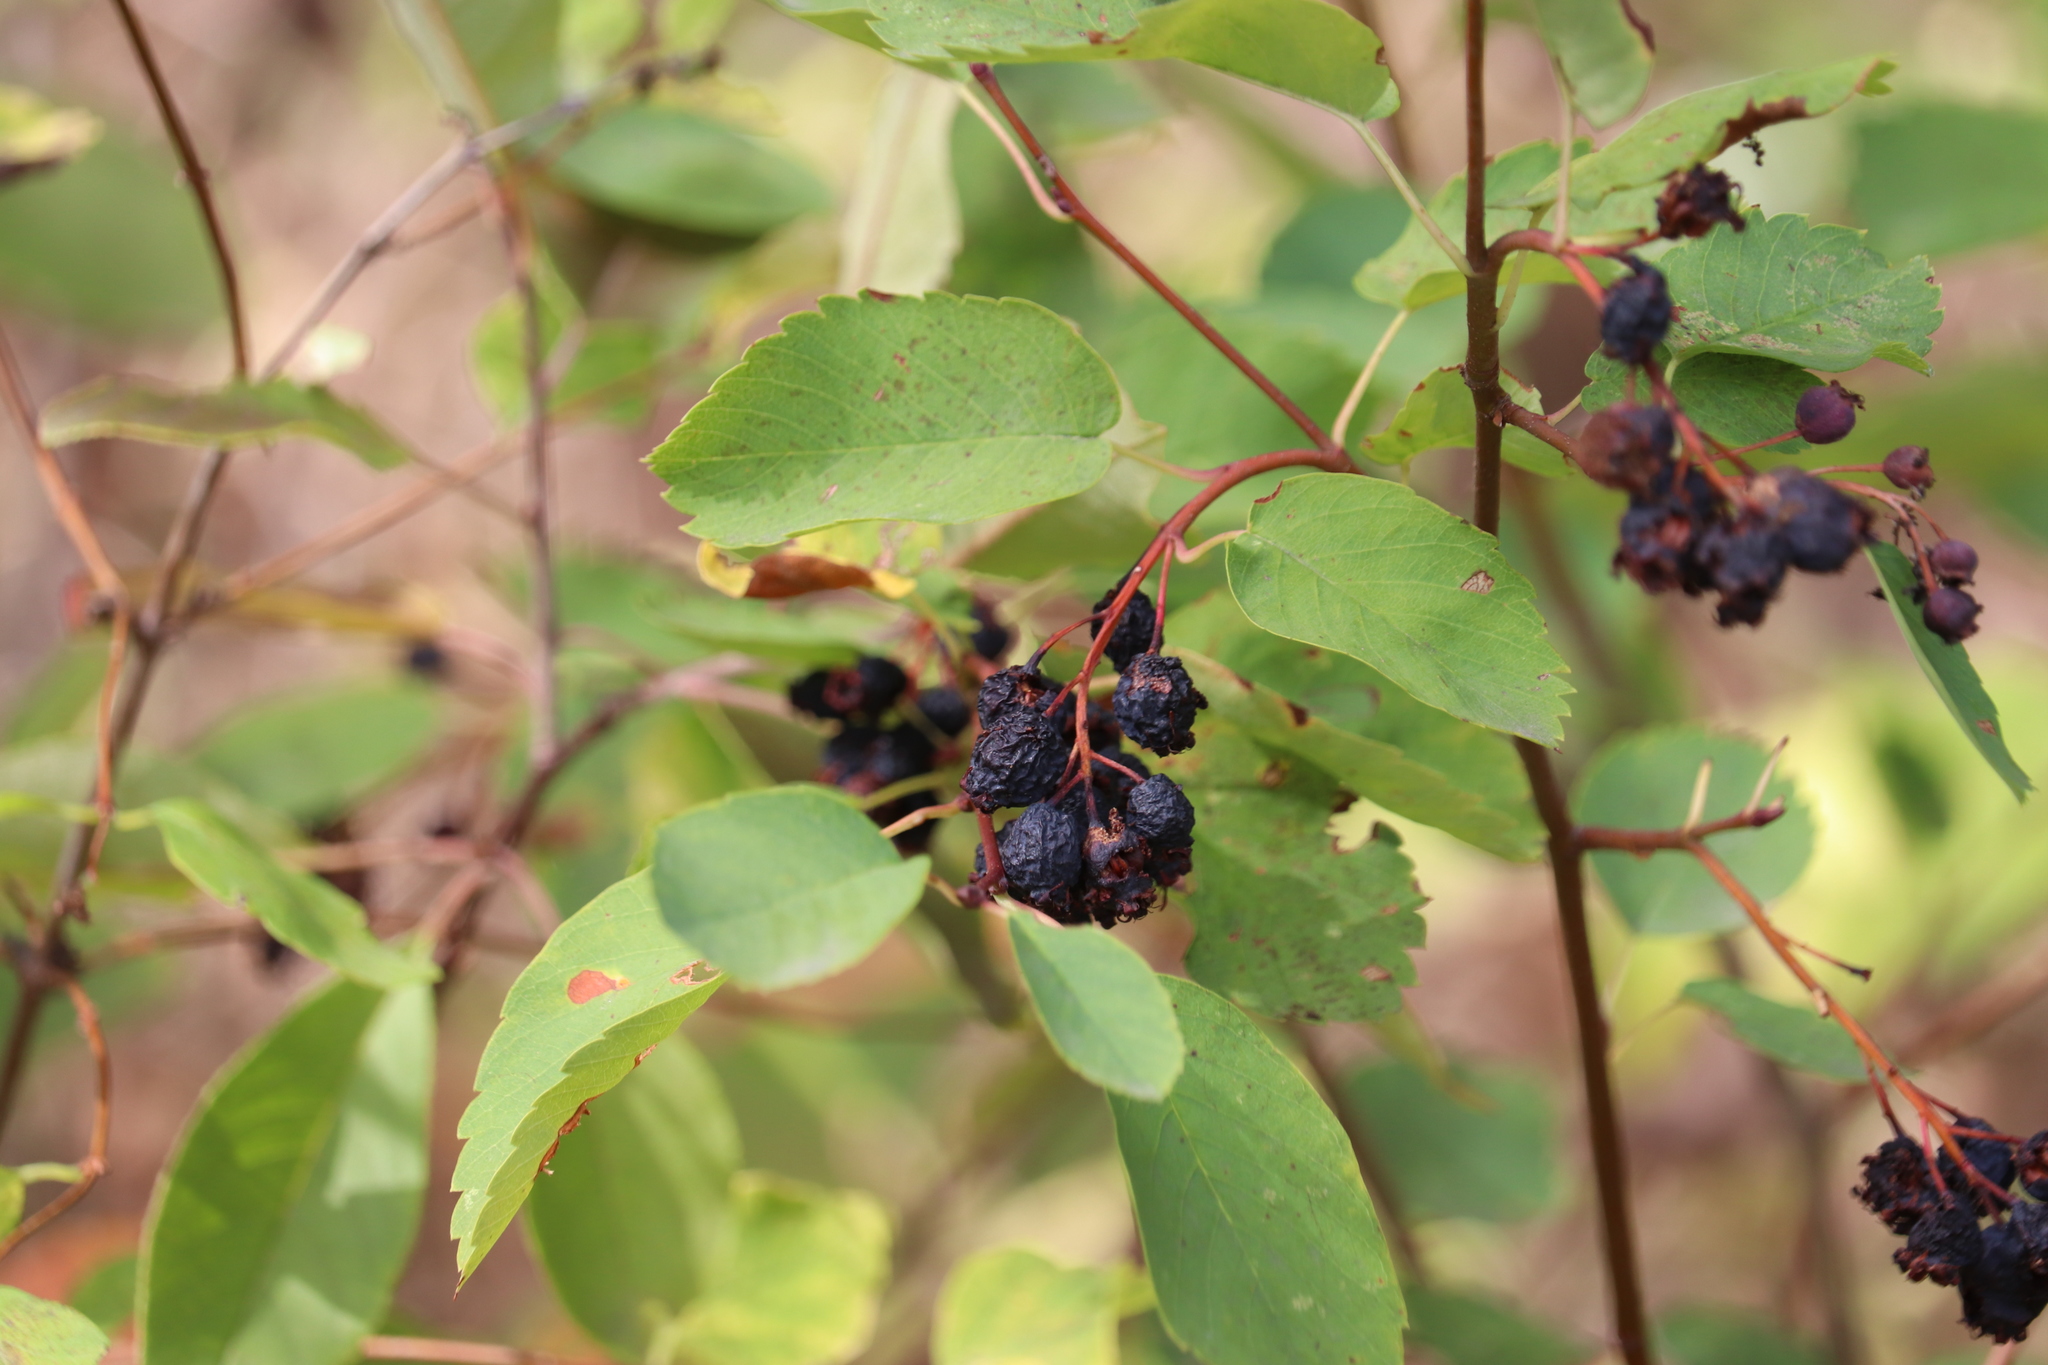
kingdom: Plantae
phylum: Tracheophyta
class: Magnoliopsida
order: Rosales
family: Rosaceae
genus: Amelanchier
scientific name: Amelanchier alnifolia
